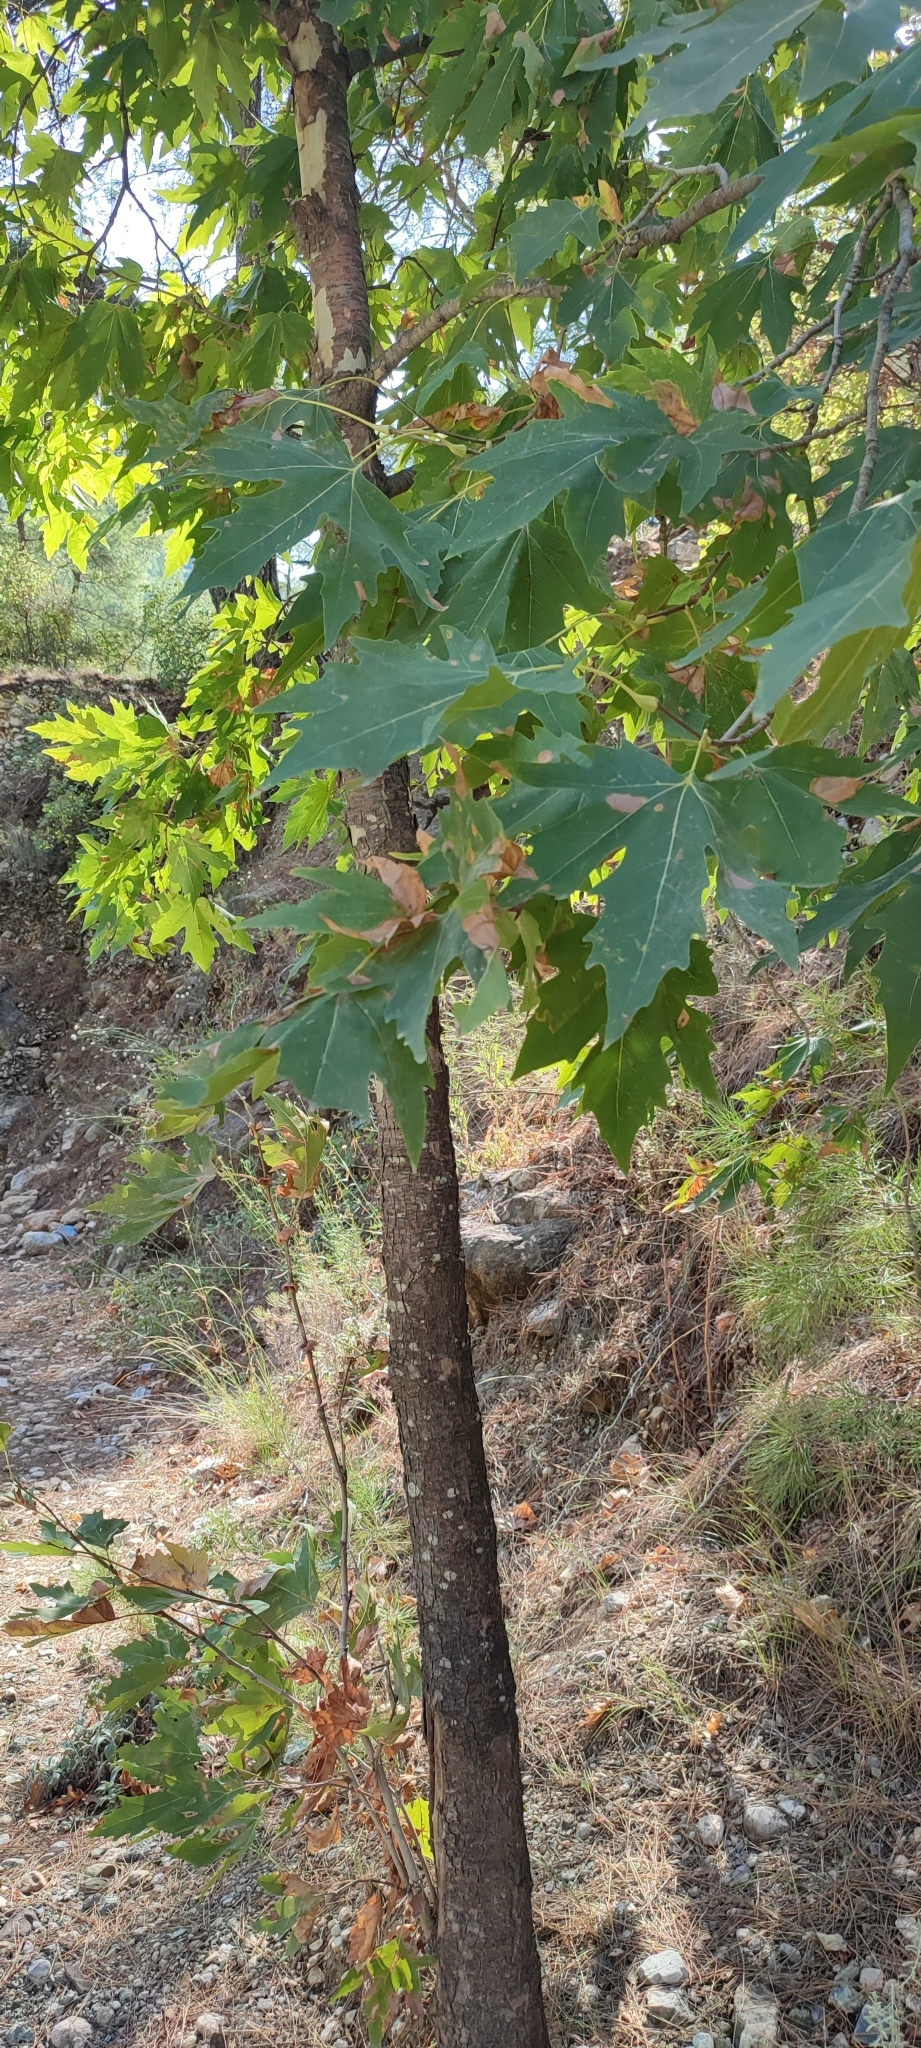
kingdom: Plantae
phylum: Tracheophyta
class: Magnoliopsida
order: Proteales
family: Platanaceae
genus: Platanus
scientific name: Platanus orientalis
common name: Oriental plane
